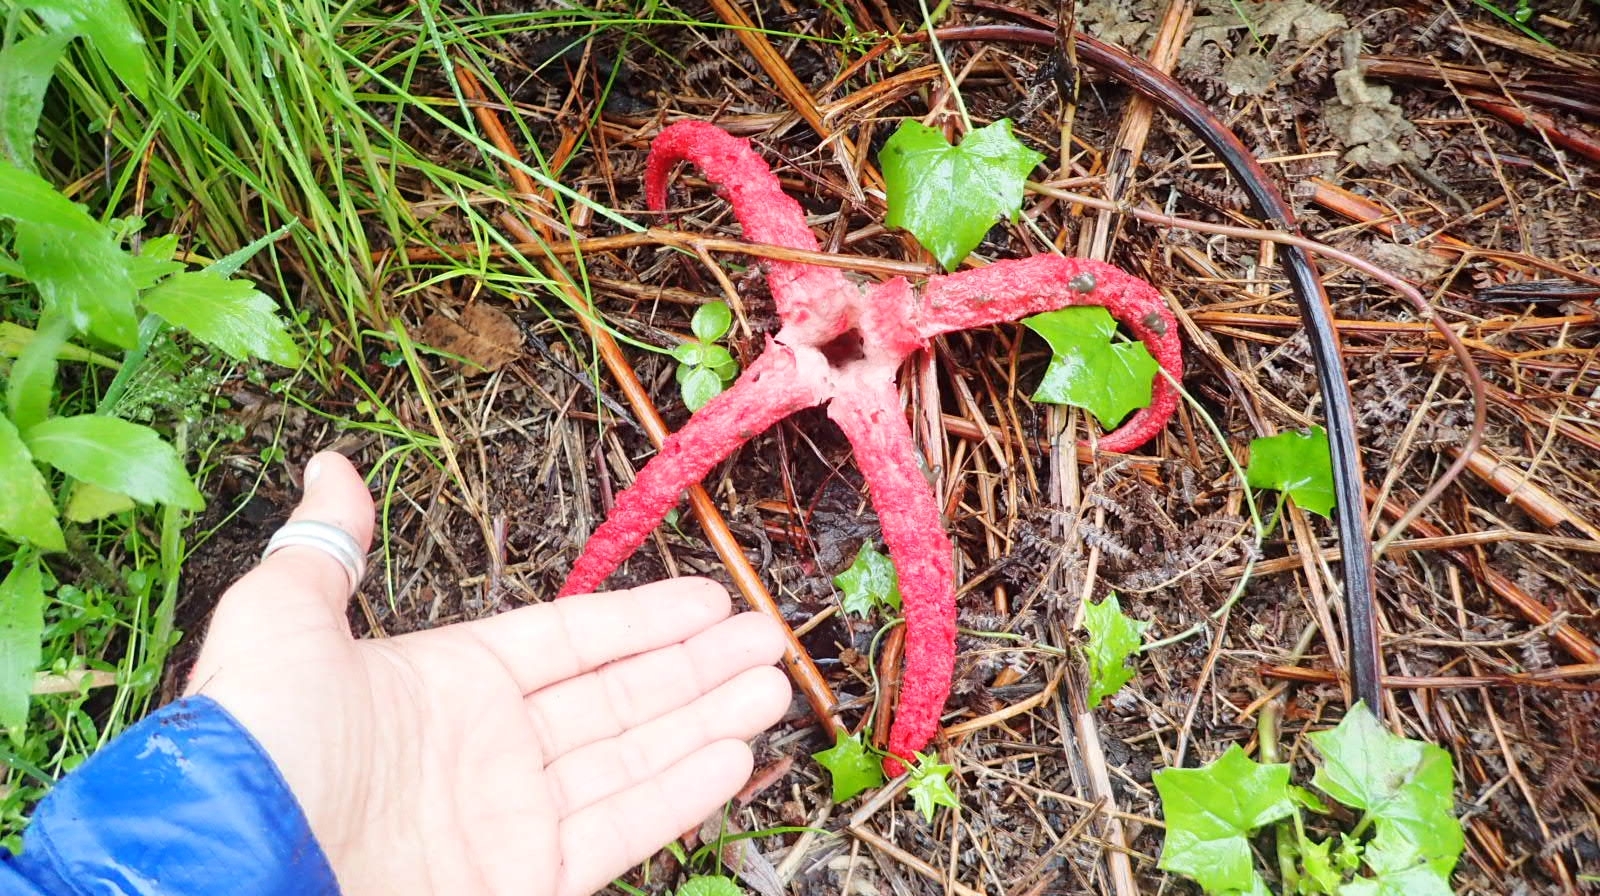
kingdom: Fungi
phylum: Basidiomycota
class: Agaricomycetes
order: Phallales
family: Phallaceae
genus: Clathrus
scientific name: Clathrus archeri
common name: Devil's fingers
